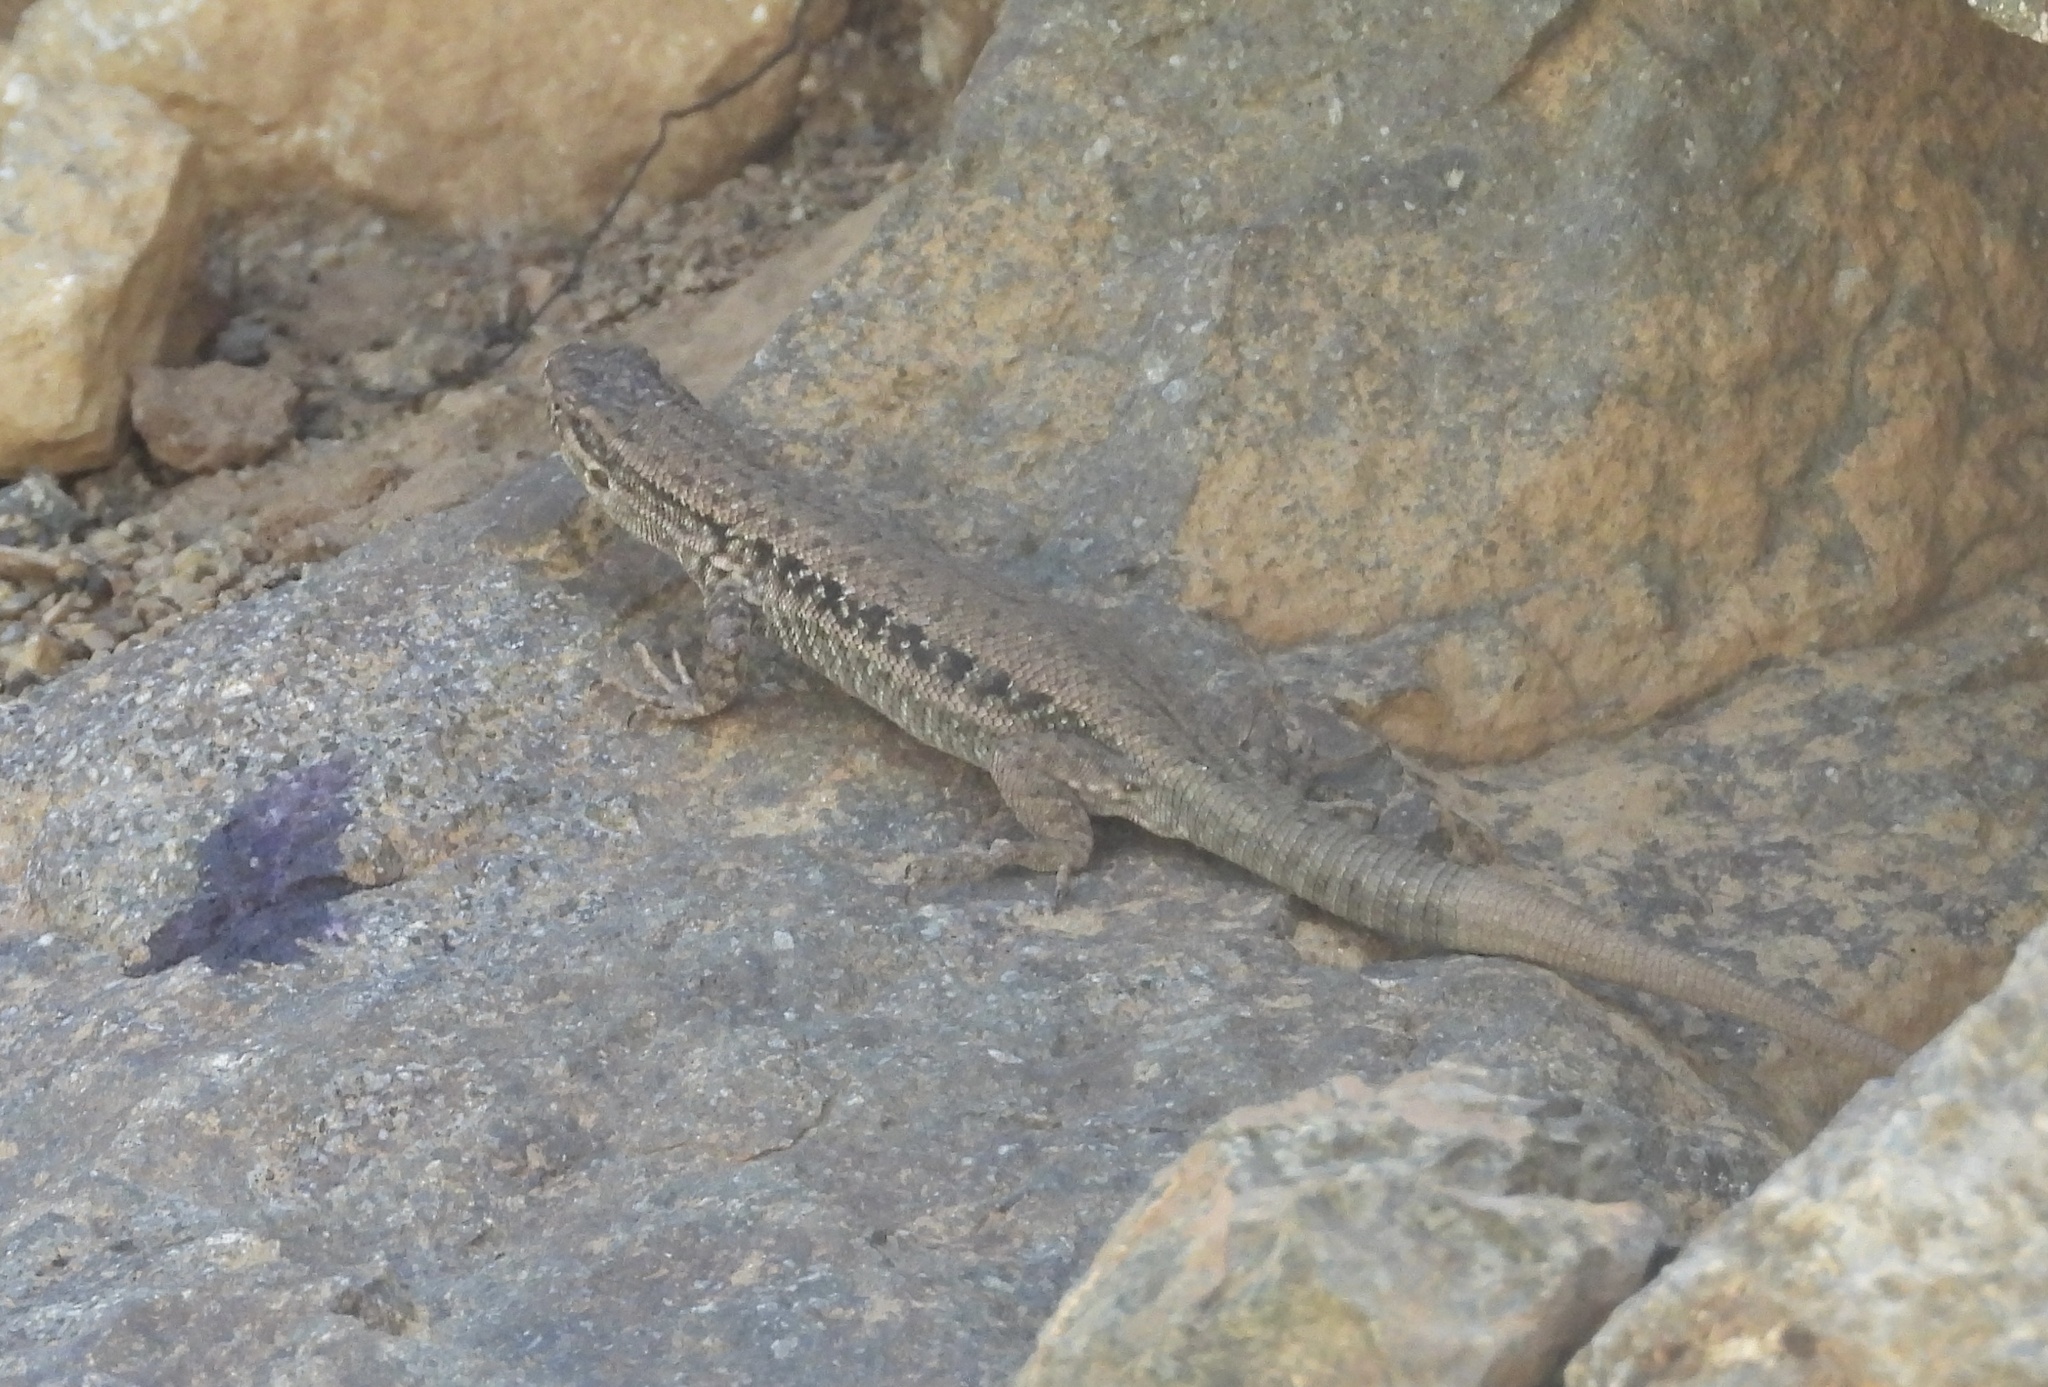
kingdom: Animalia
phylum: Chordata
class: Squamata
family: Liolaemidae
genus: Liolaemus
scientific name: Liolaemus nigroviridis
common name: Black-green tree iguana
